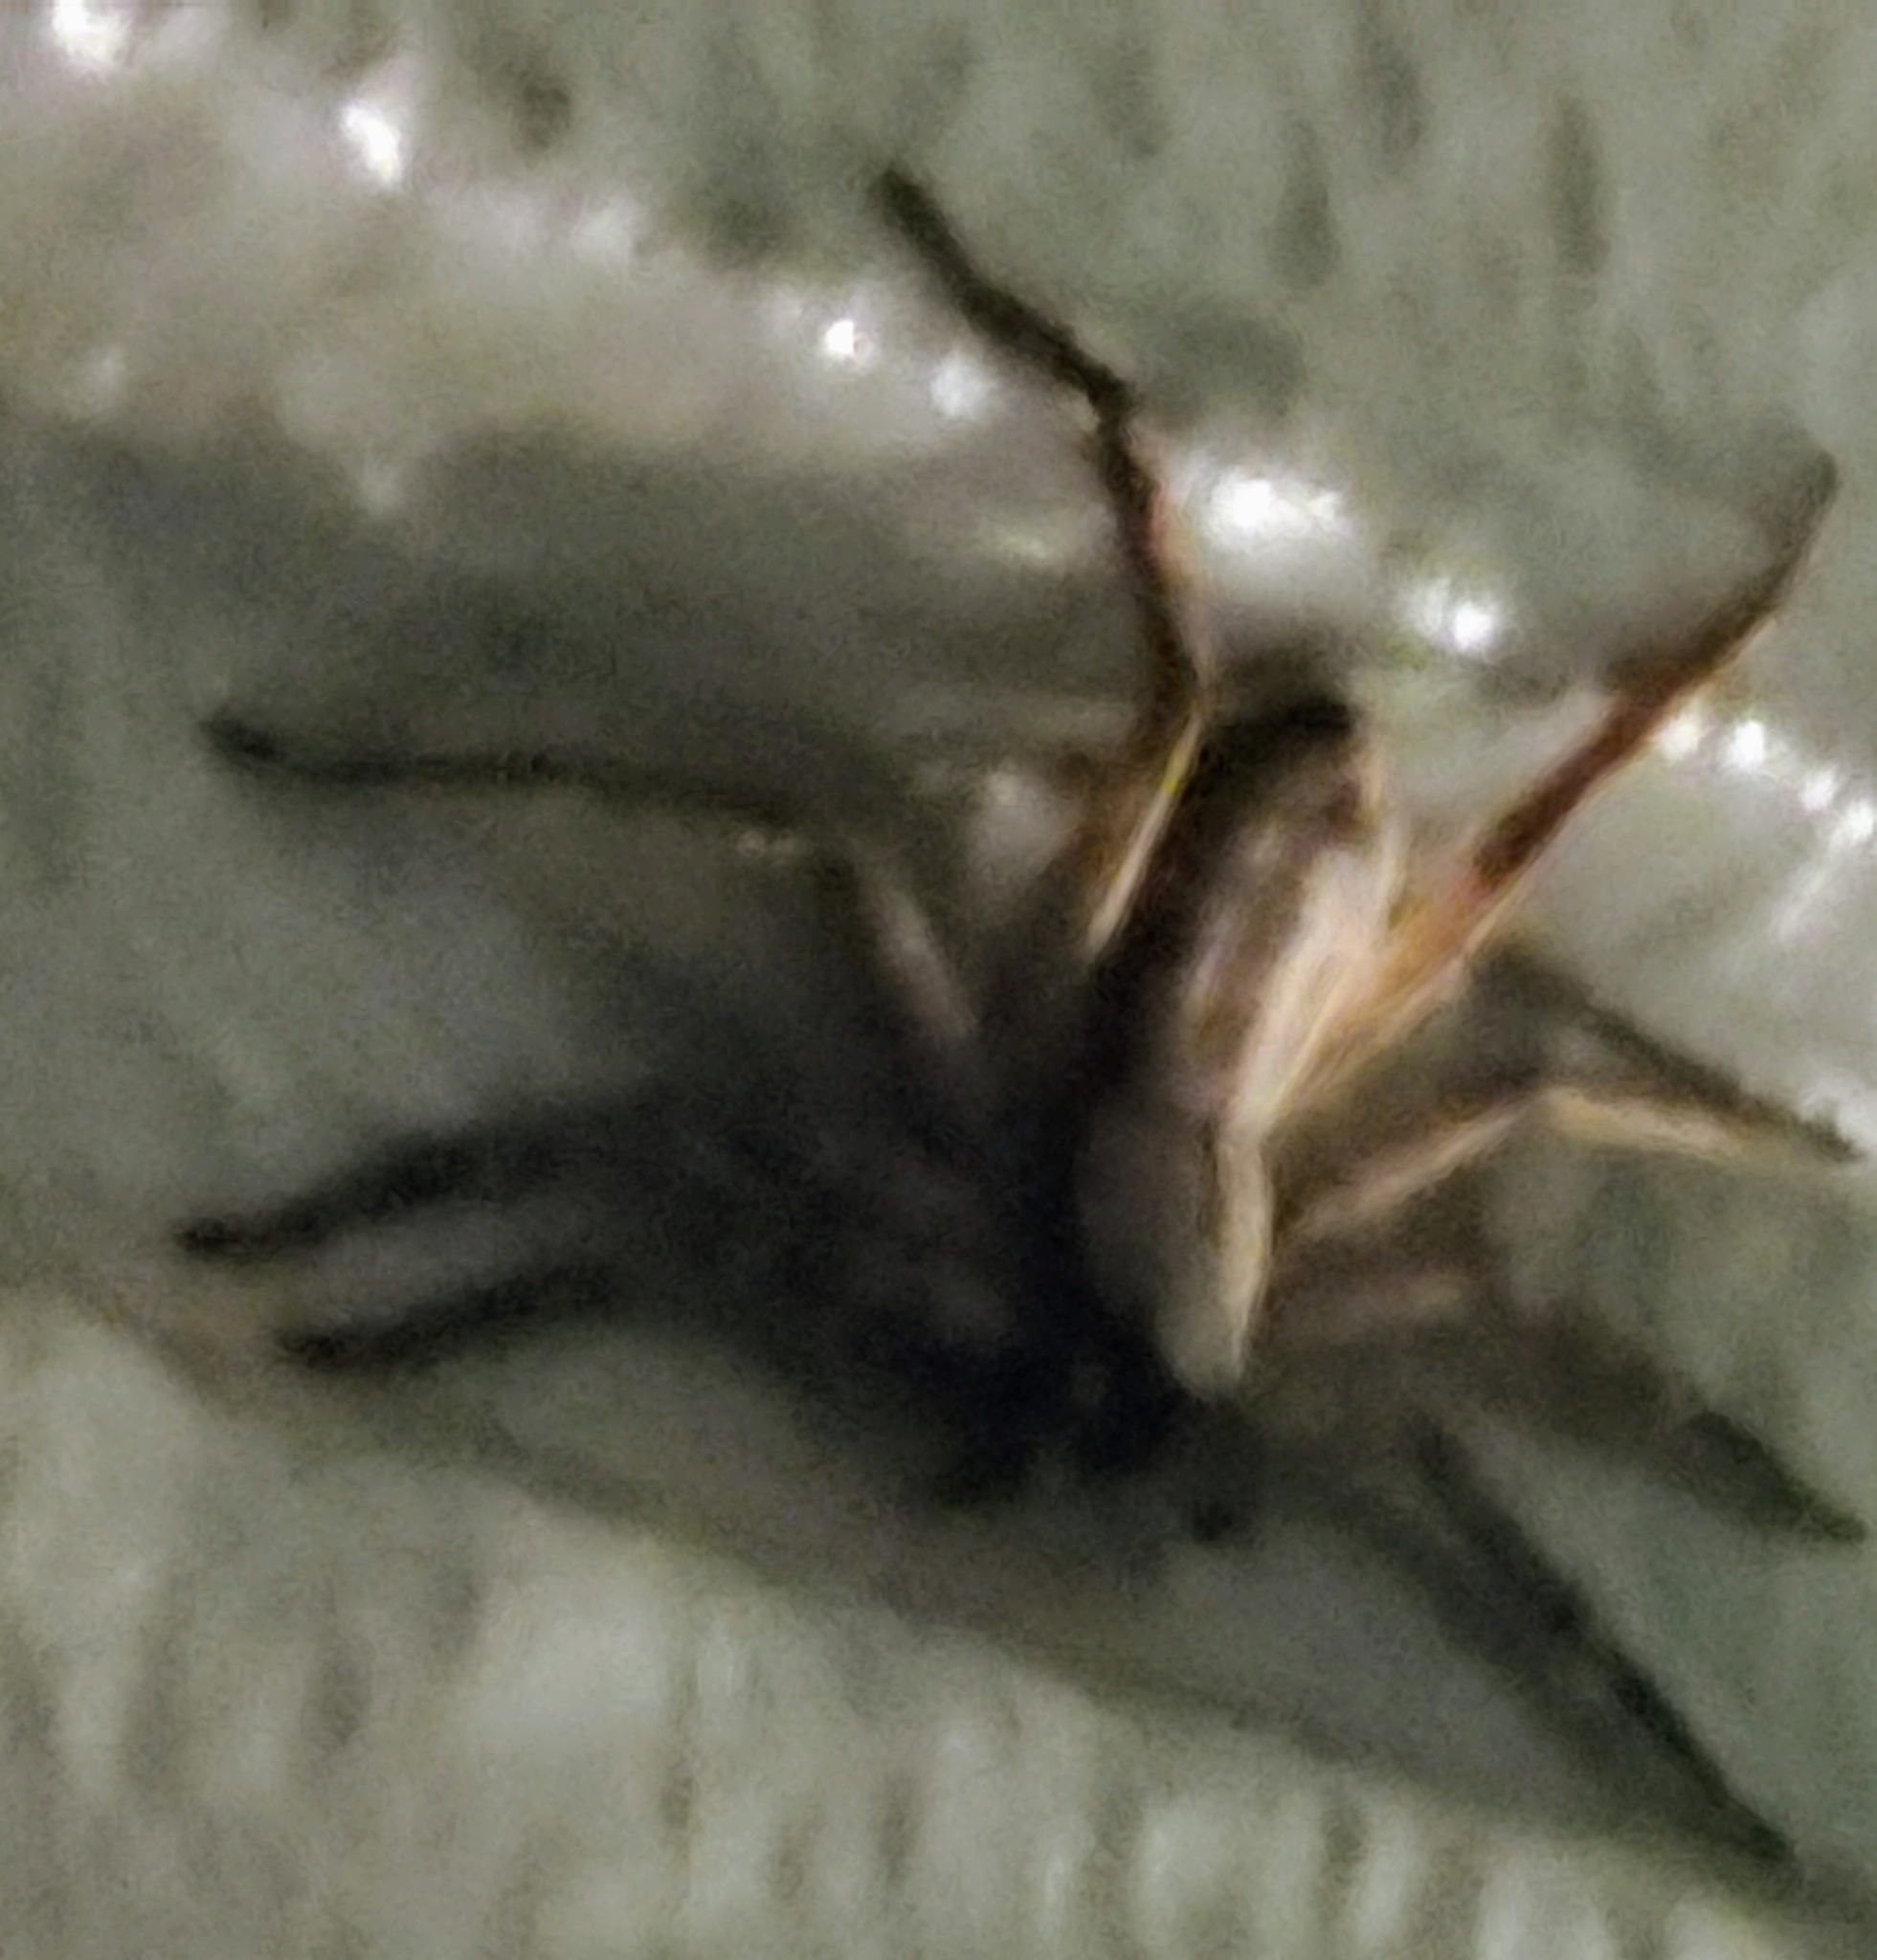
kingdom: Animalia
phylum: Arthropoda
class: Arachnida
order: Araneae
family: Selenopidae
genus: Selenops
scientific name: Selenops submaculosus
